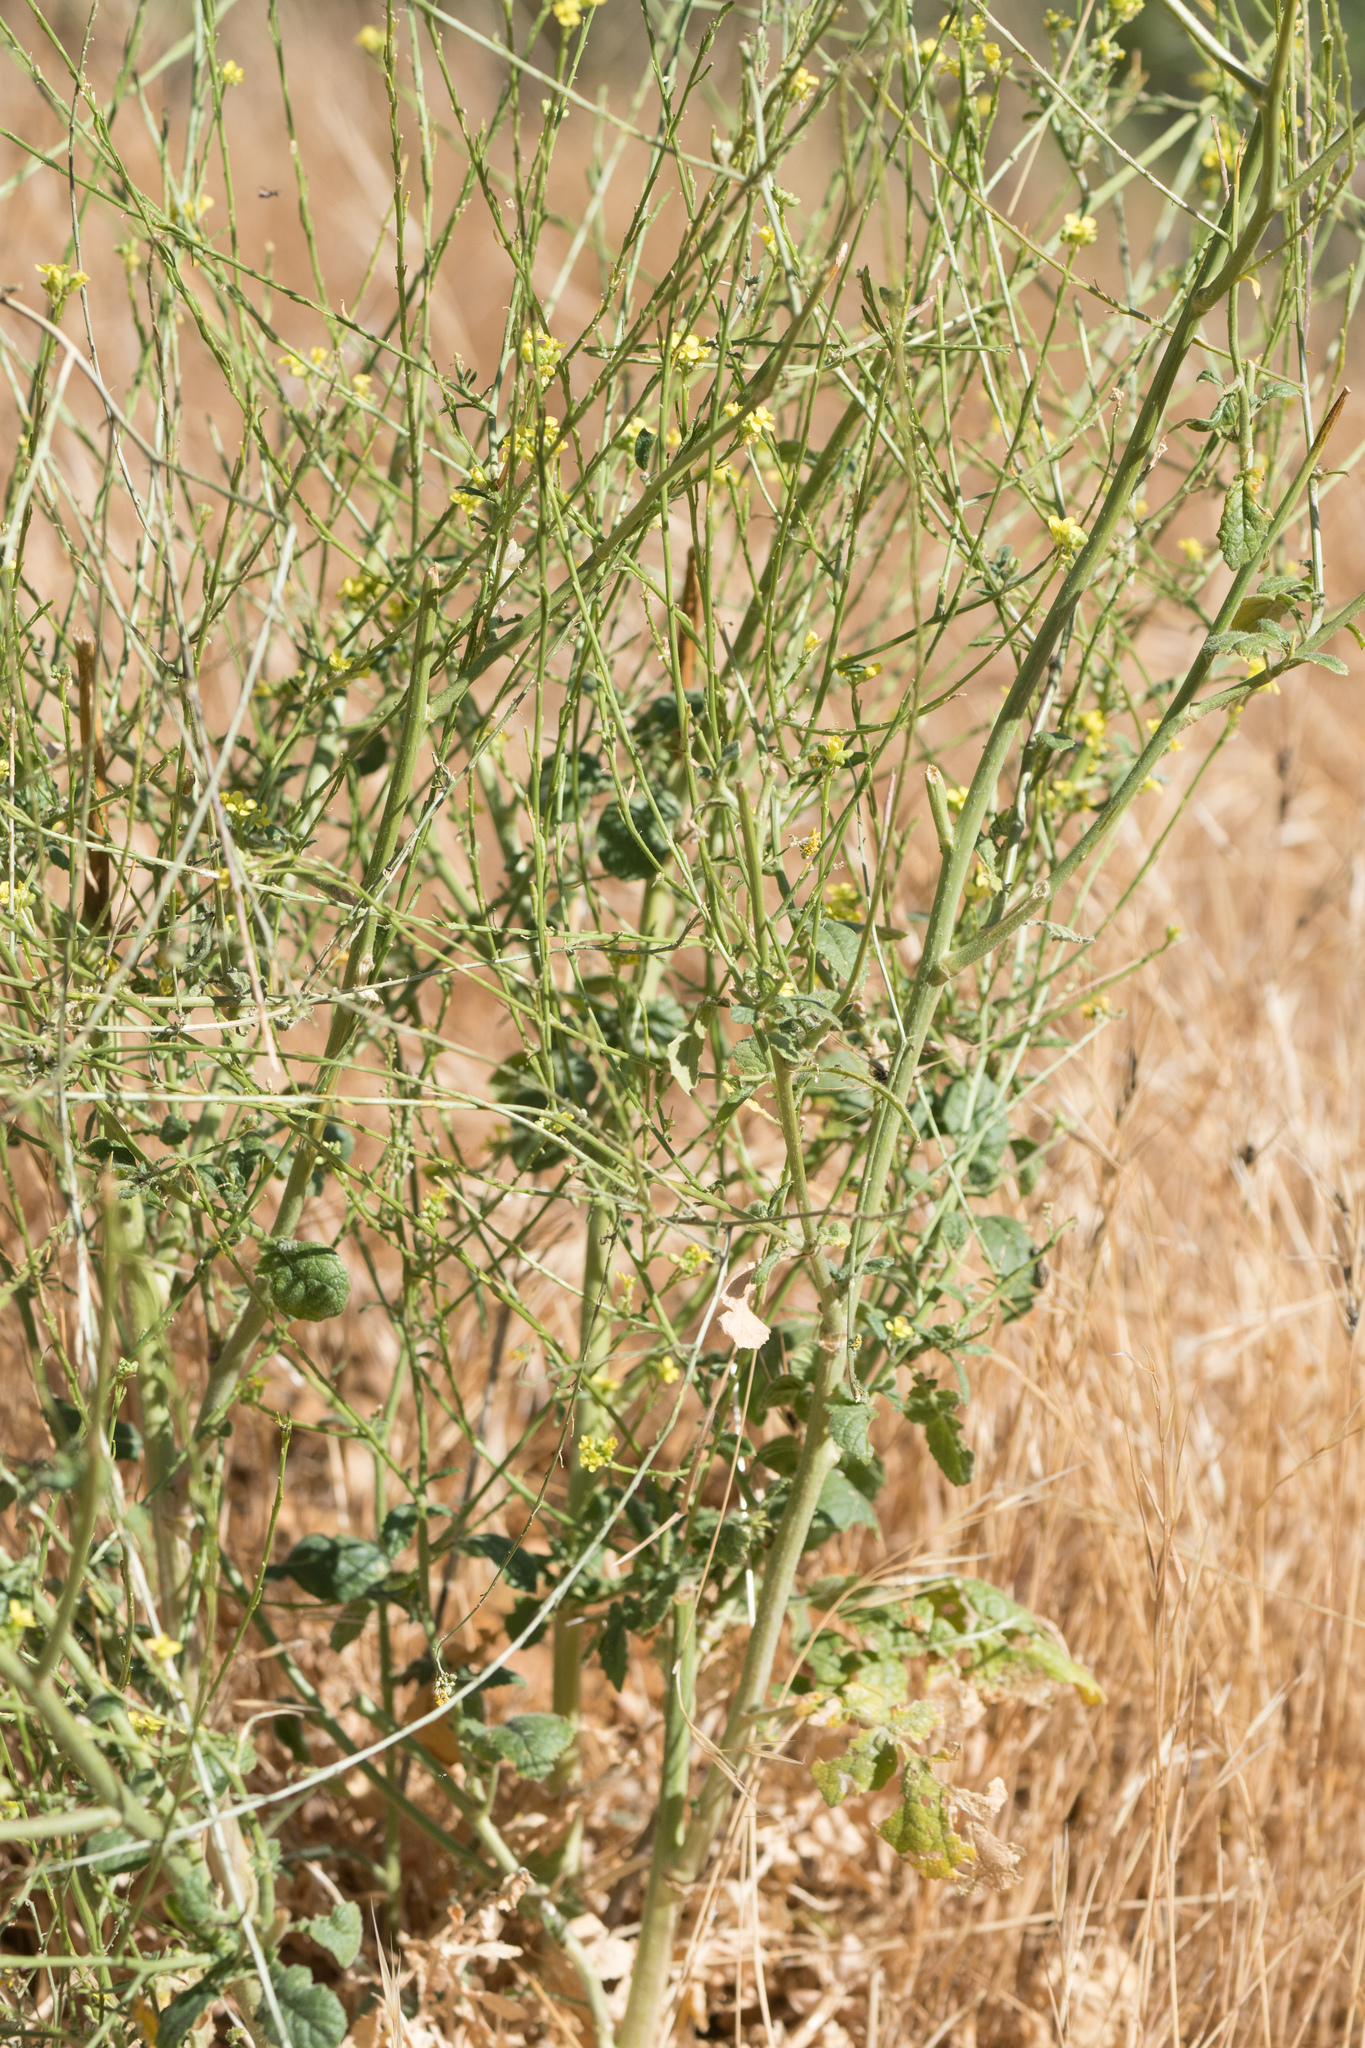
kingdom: Plantae
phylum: Tracheophyta
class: Magnoliopsida
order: Brassicales
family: Brassicaceae
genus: Hirschfeldia
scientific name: Hirschfeldia incana
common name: Hoary mustard
